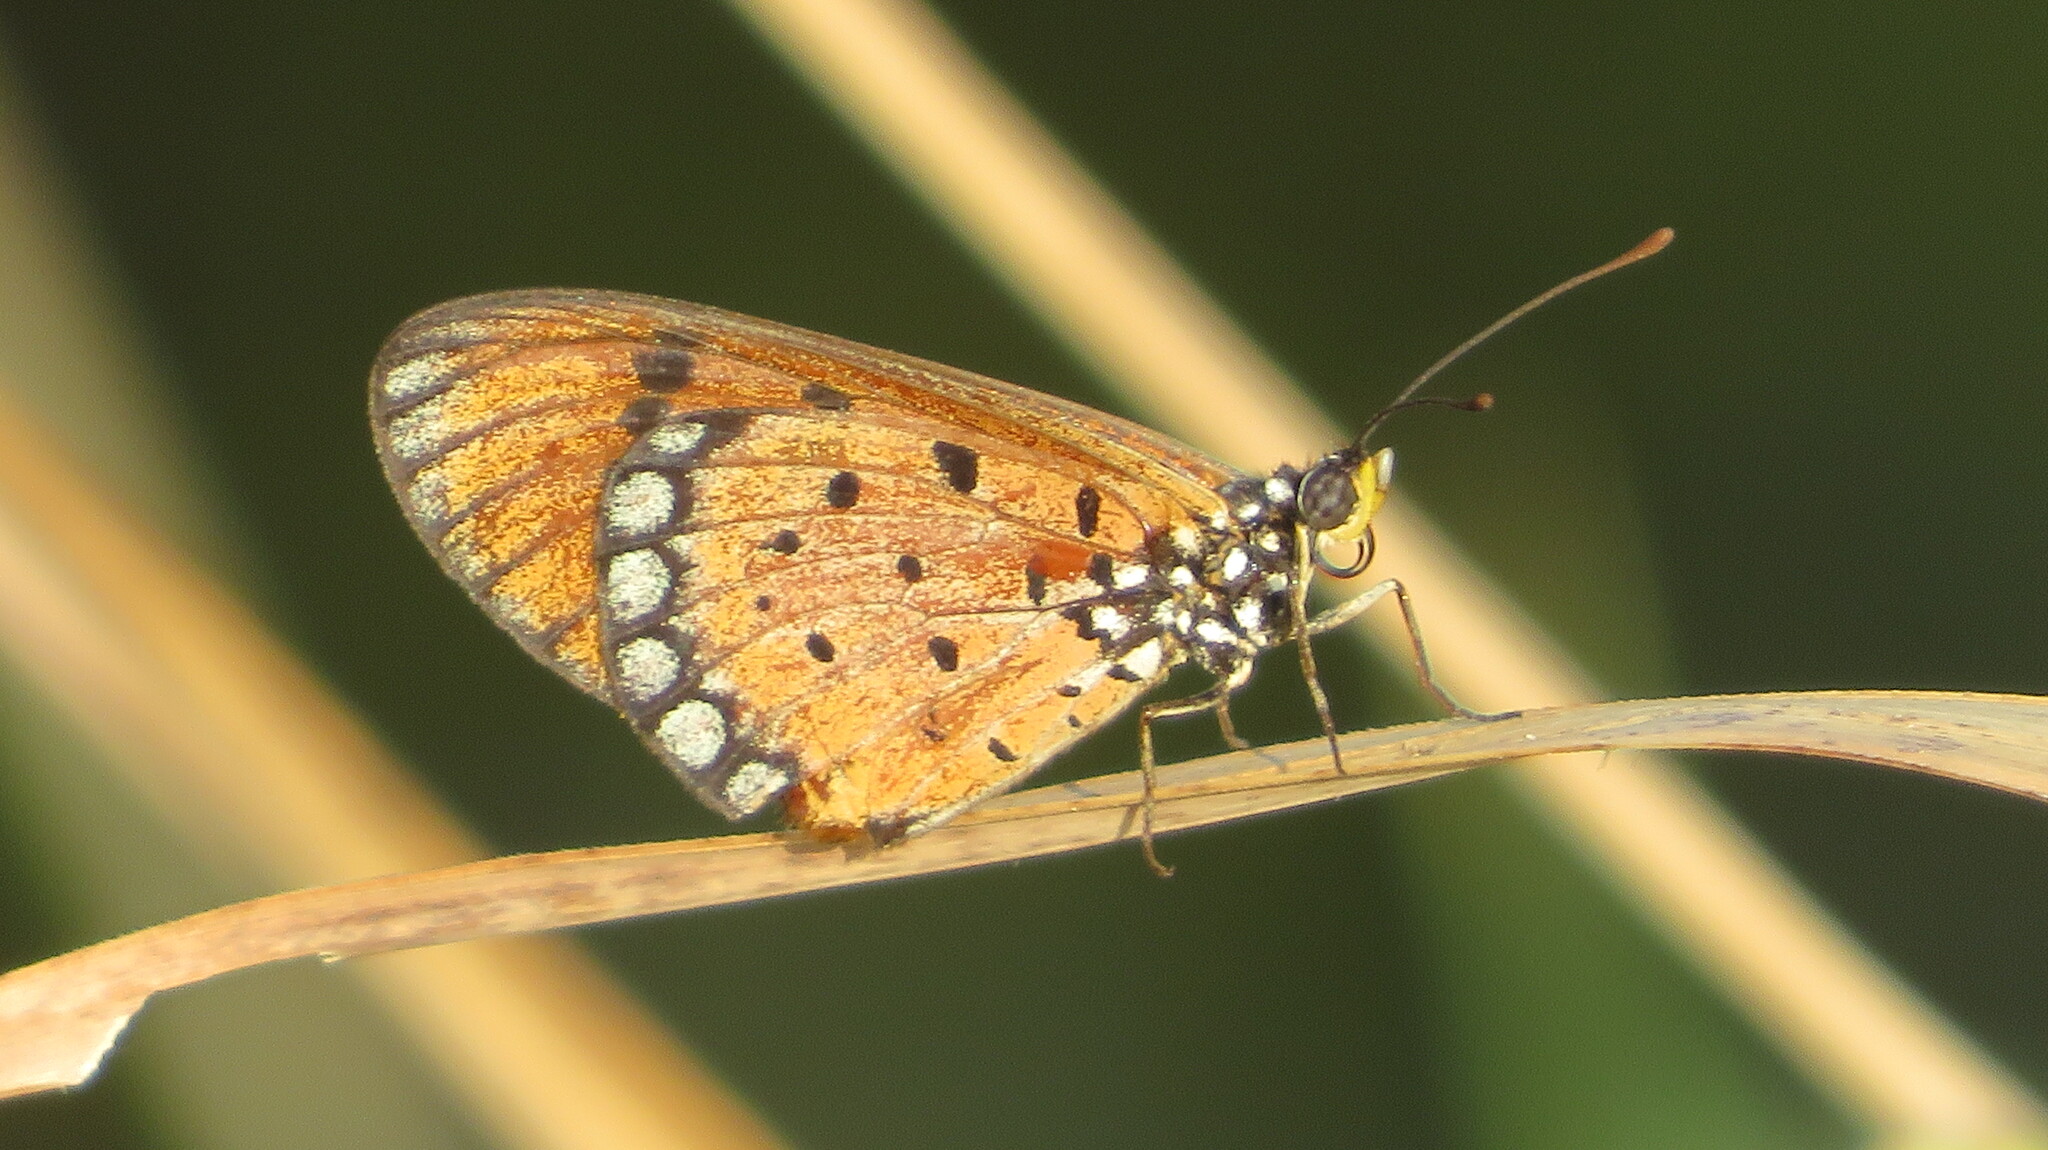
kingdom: Animalia
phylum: Arthropoda
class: Insecta
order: Lepidoptera
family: Nymphalidae
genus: Acraea
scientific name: Acraea terpsicore
